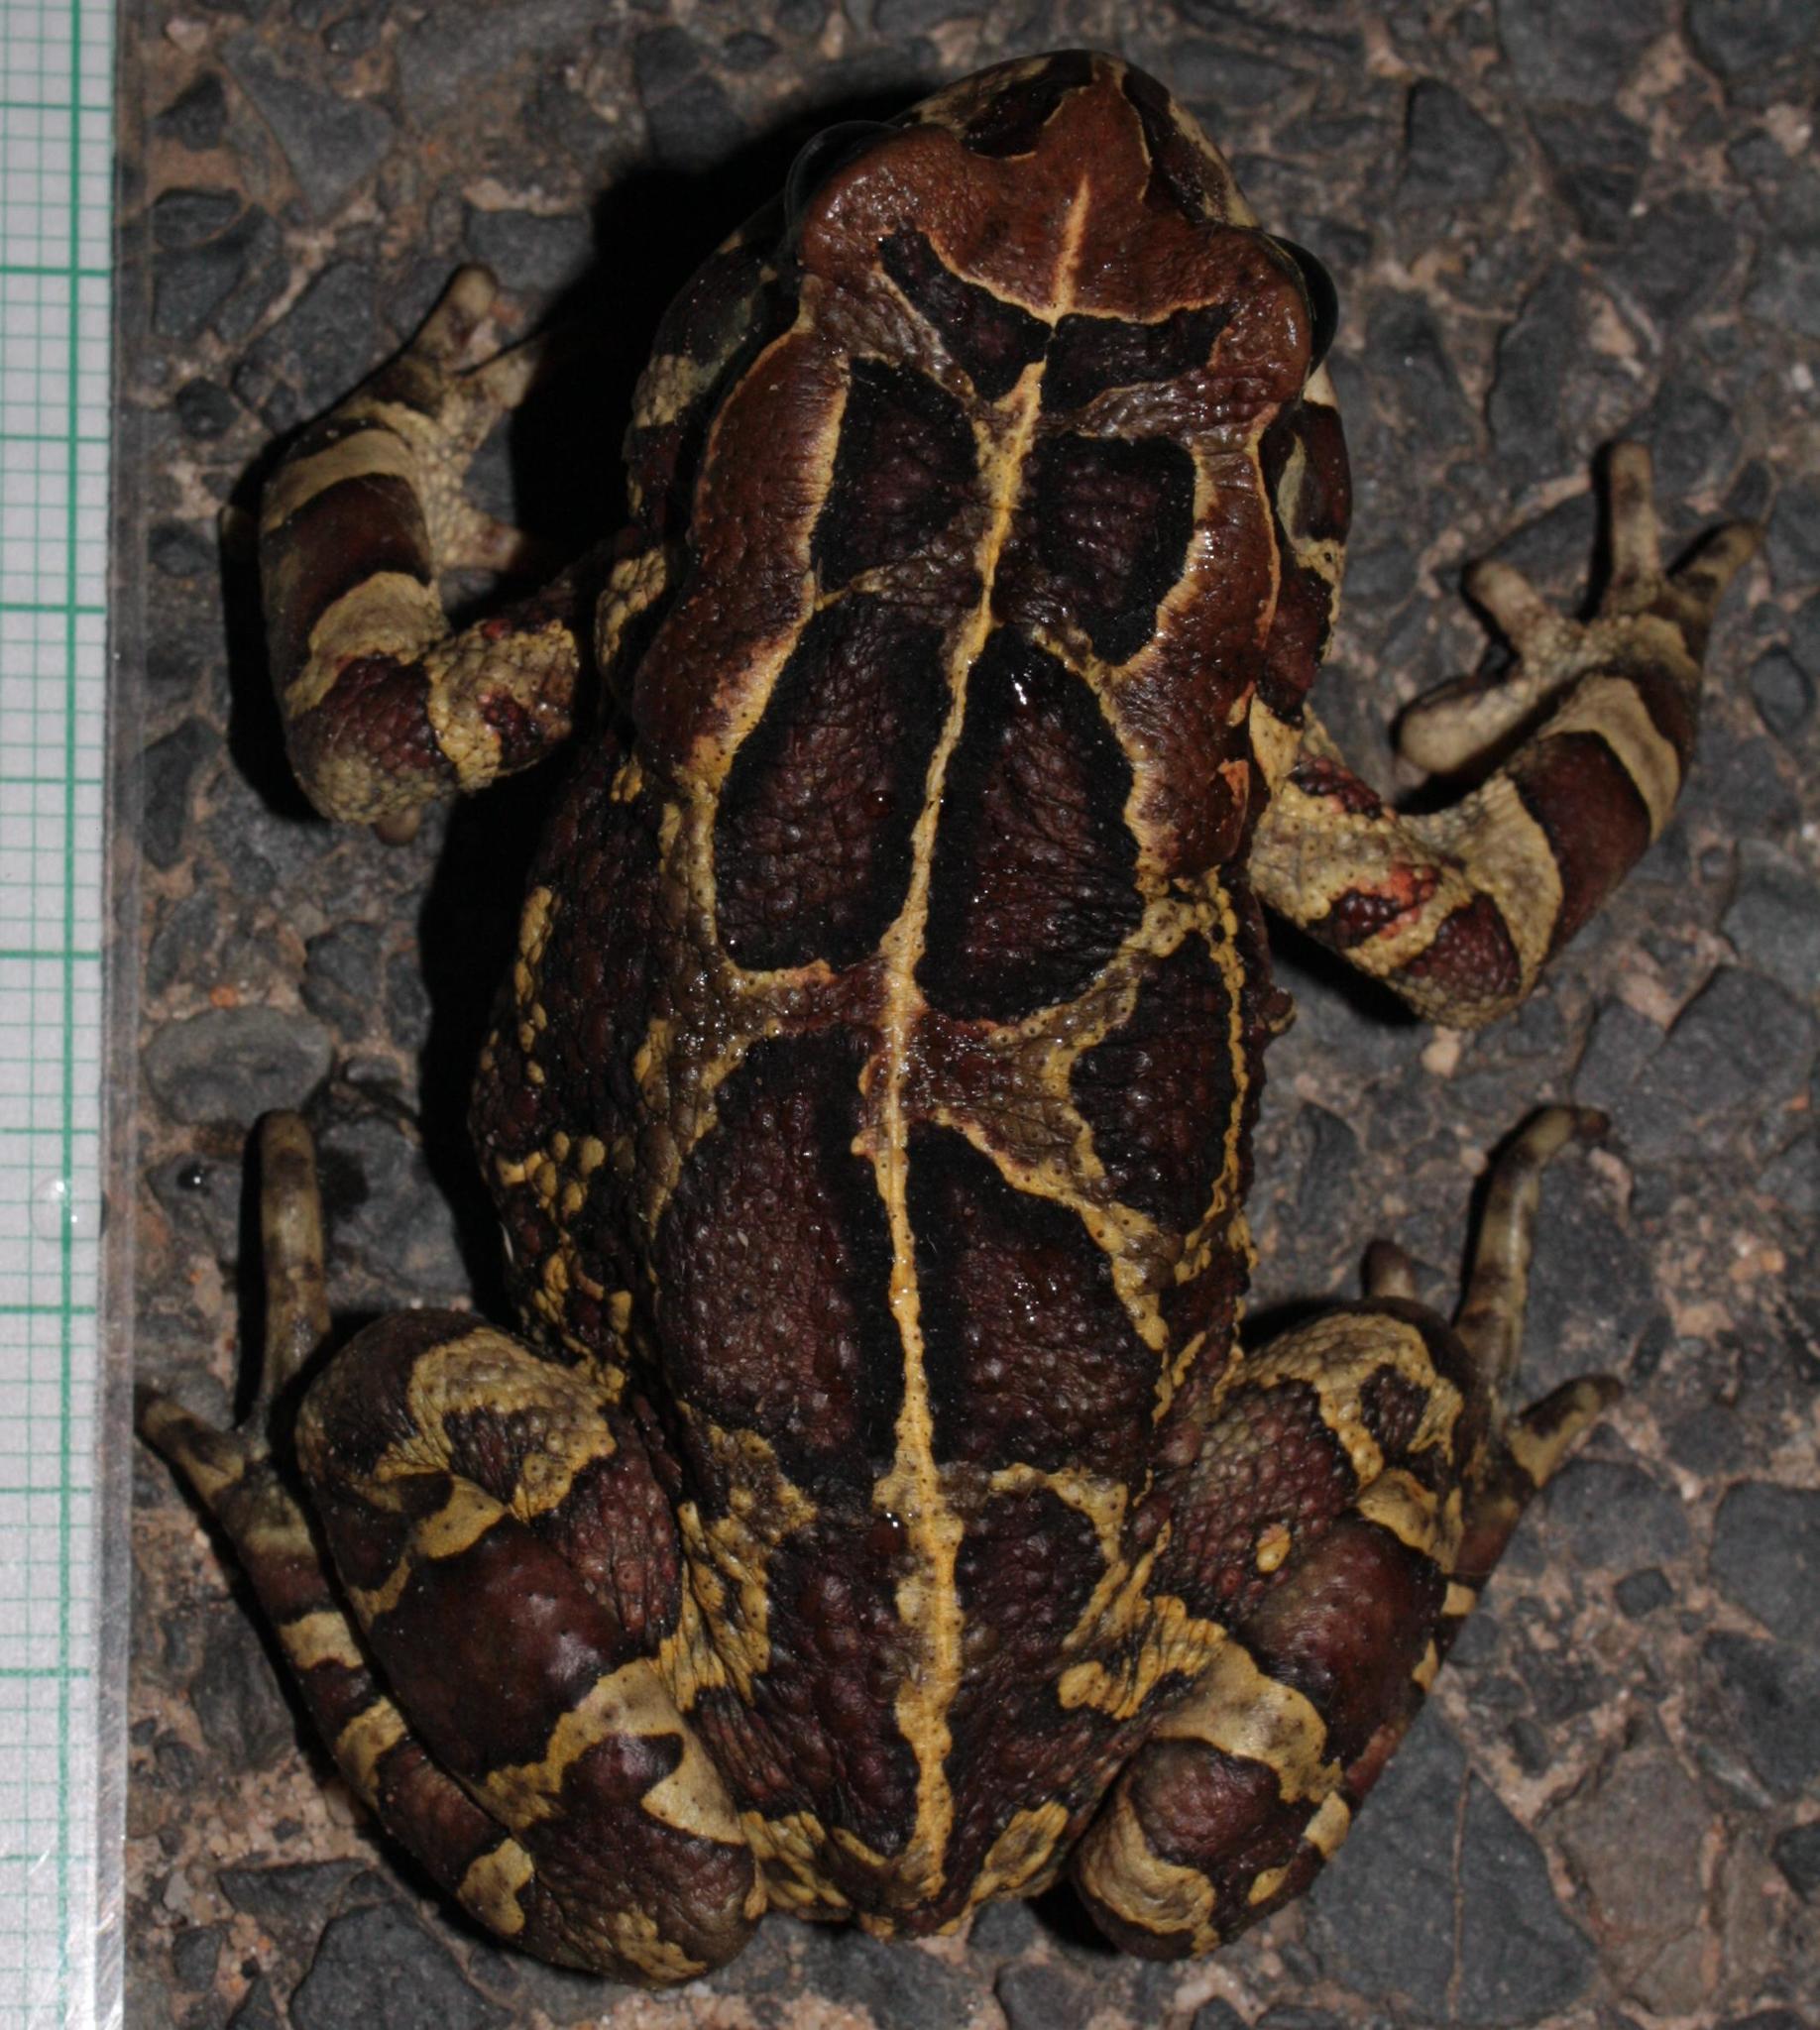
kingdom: Animalia
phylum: Chordata
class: Amphibia
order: Anura
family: Bufonidae
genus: Sclerophrys
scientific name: Sclerophrys pantherina
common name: Panther toad
